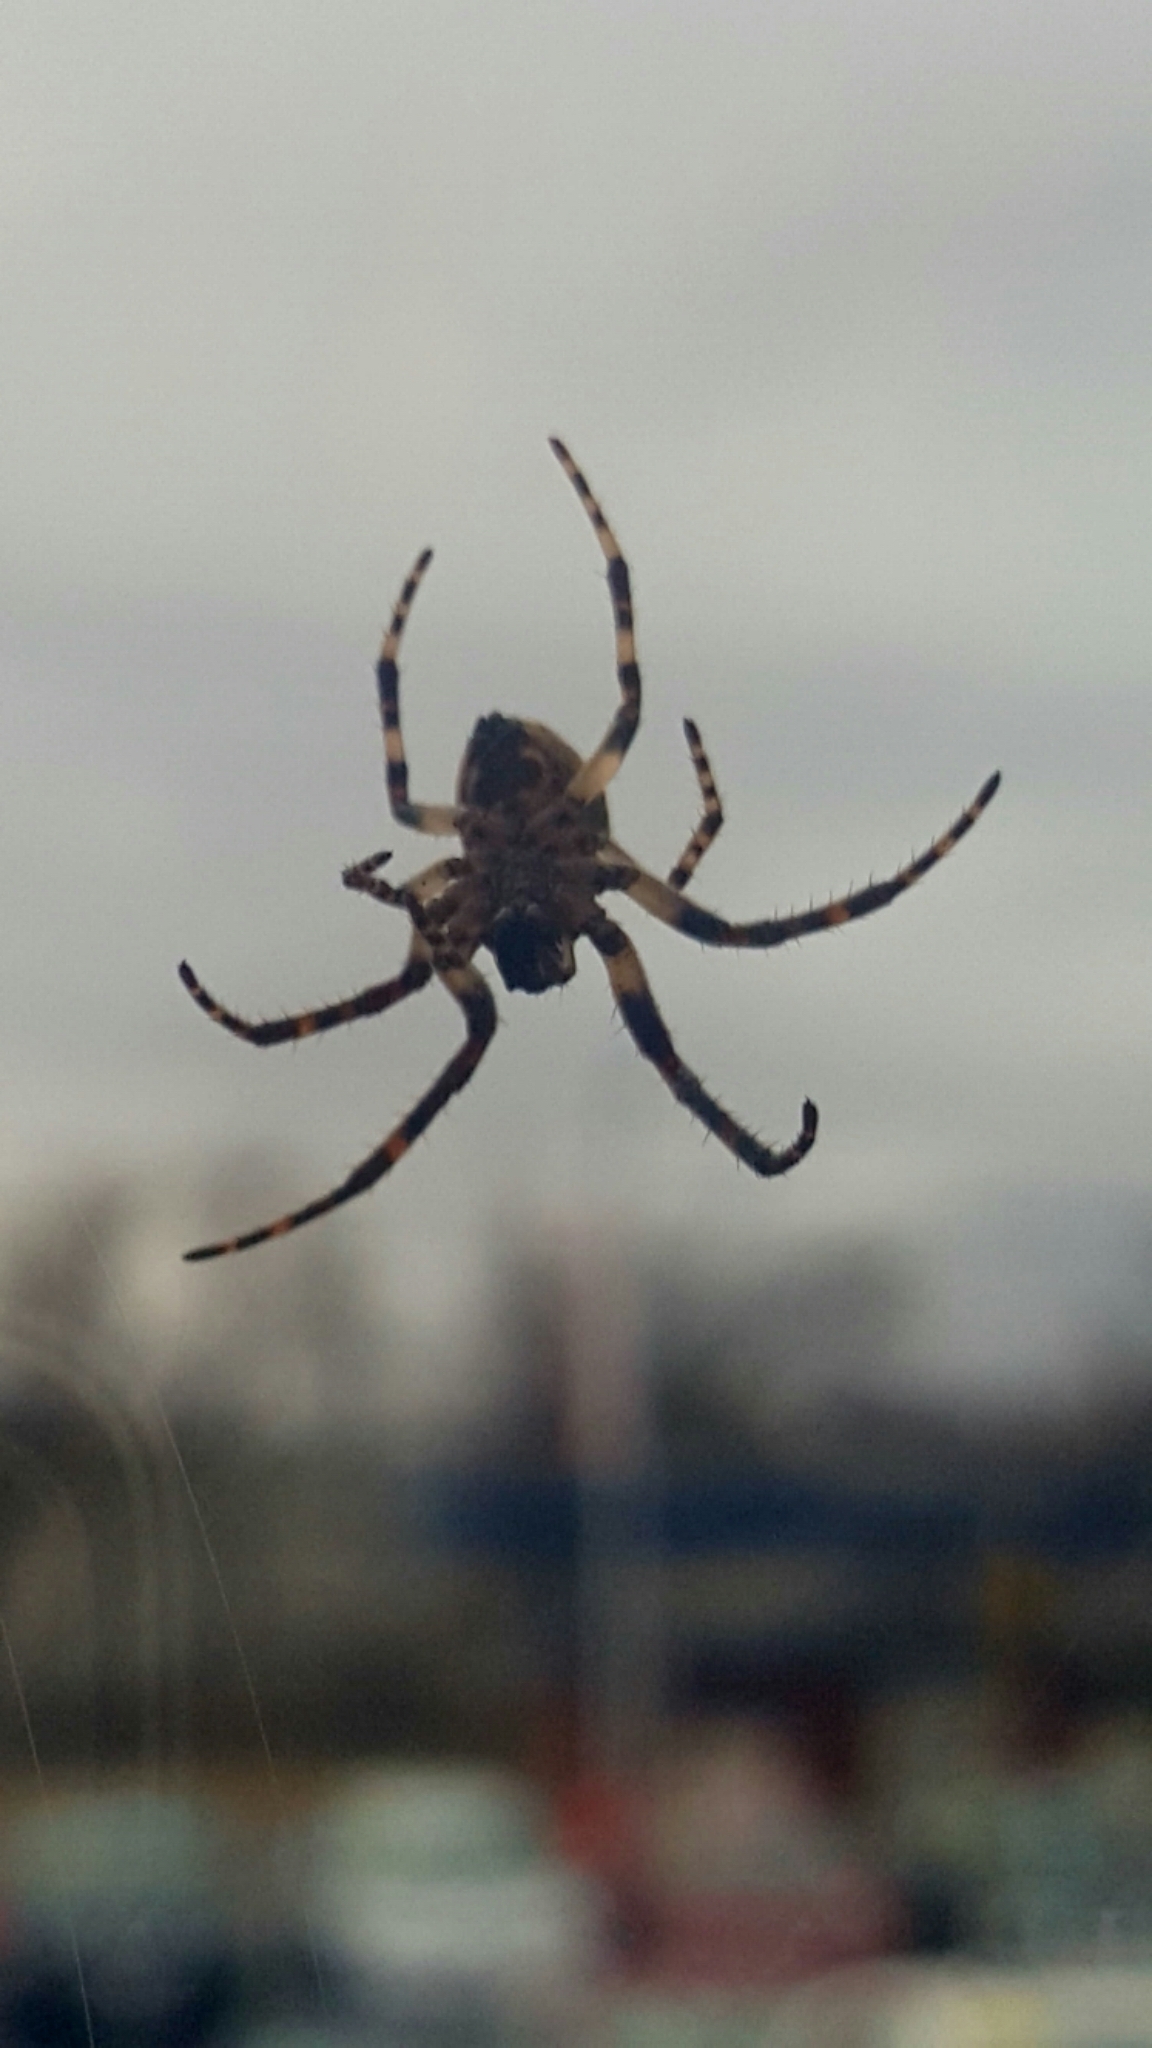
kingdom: Animalia
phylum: Arthropoda
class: Arachnida
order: Araneae
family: Araneidae
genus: Larinioides
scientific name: Larinioides sclopetarius
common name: Bridge orbweaver
